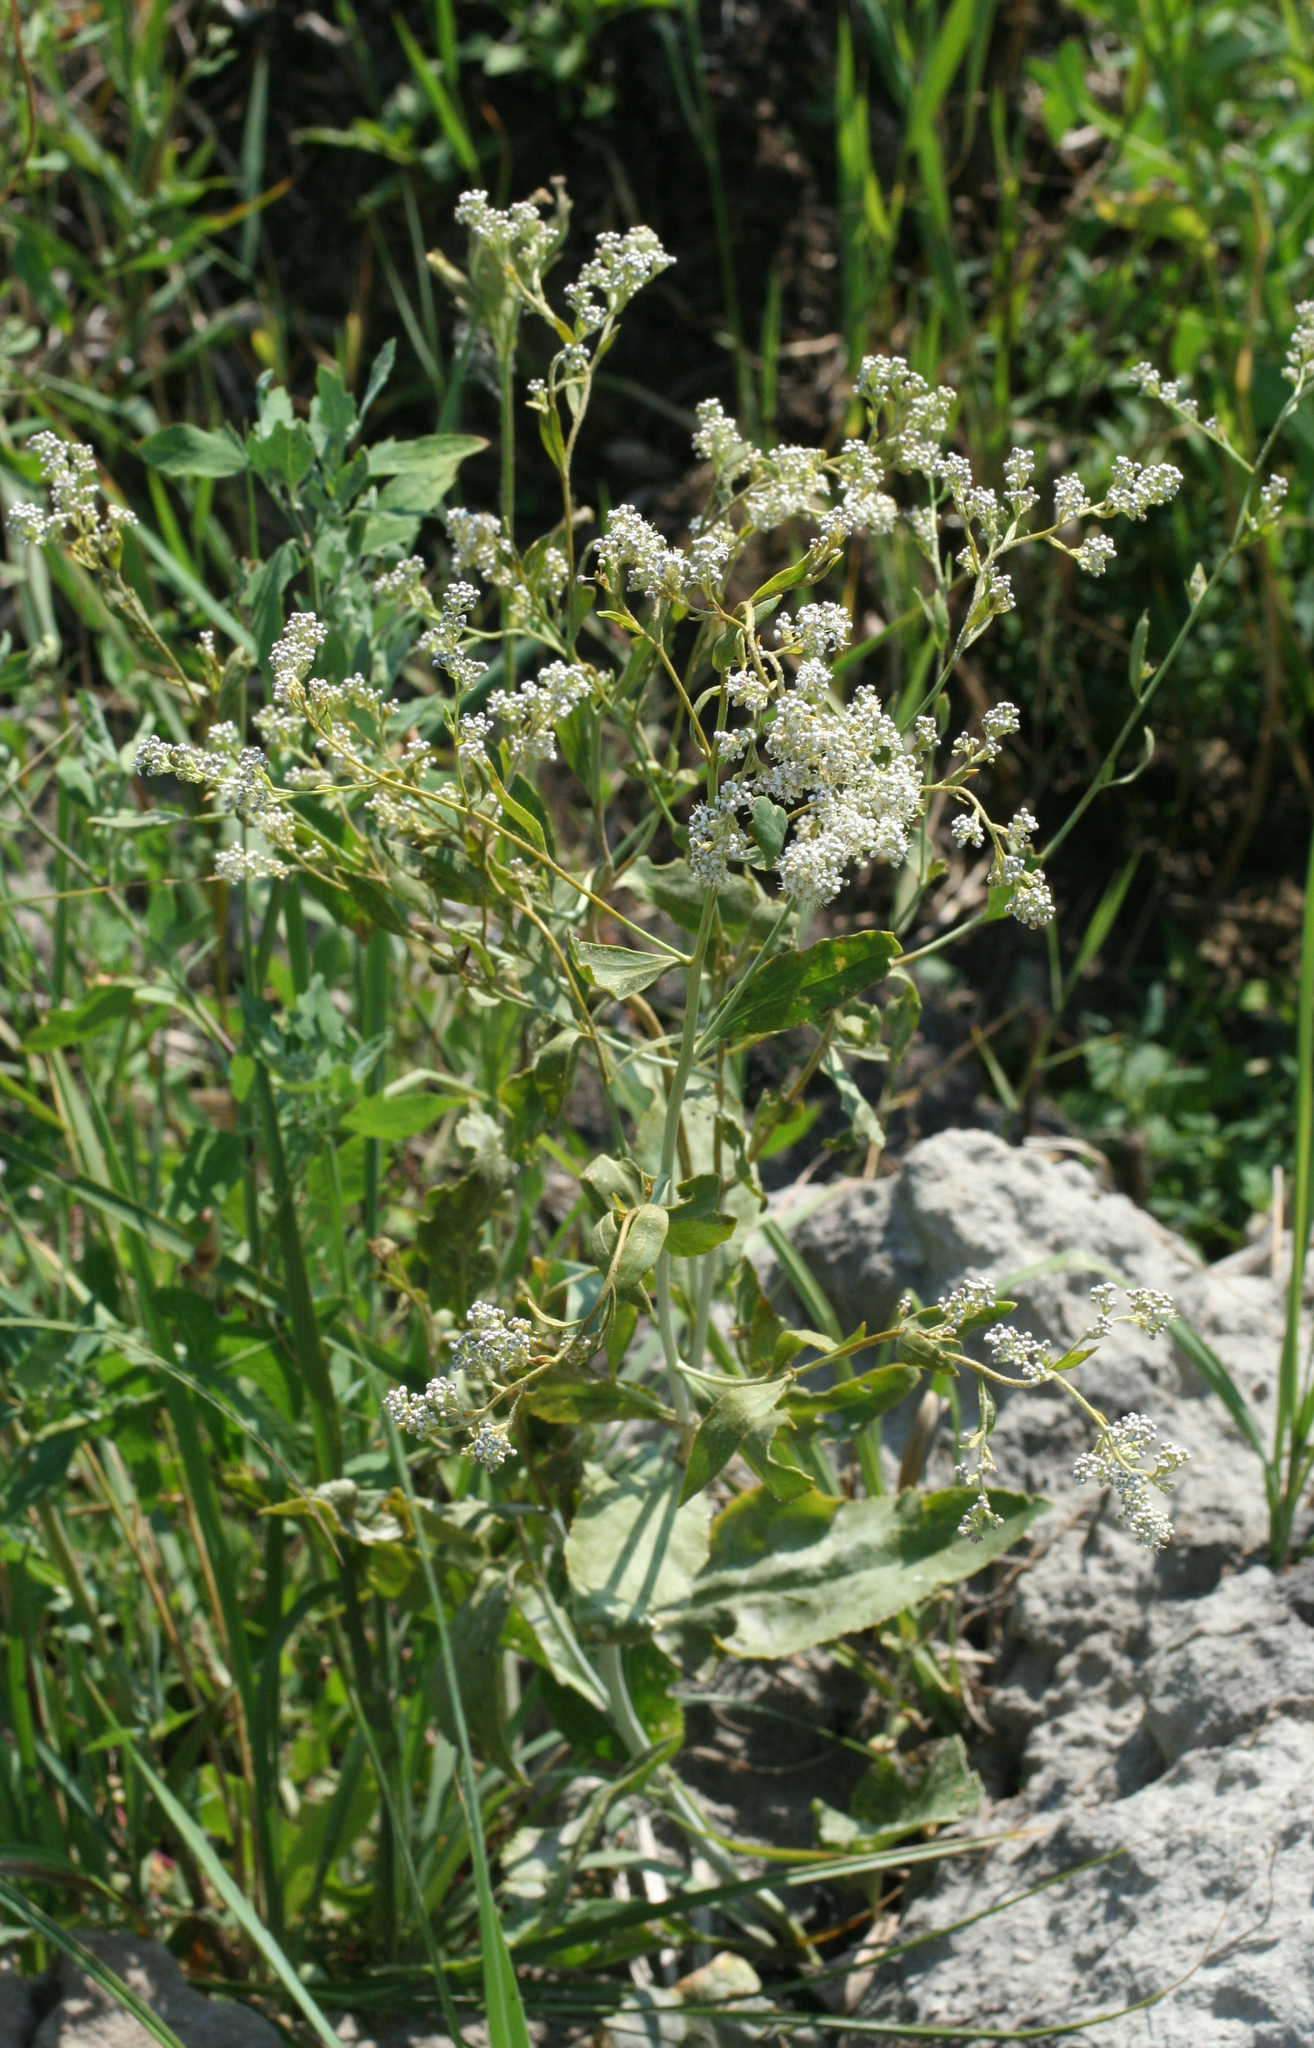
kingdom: Plantae
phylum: Tracheophyta
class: Magnoliopsida
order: Brassicales
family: Brassicaceae
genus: Lepidium
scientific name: Lepidium latifolium
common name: Dittander
